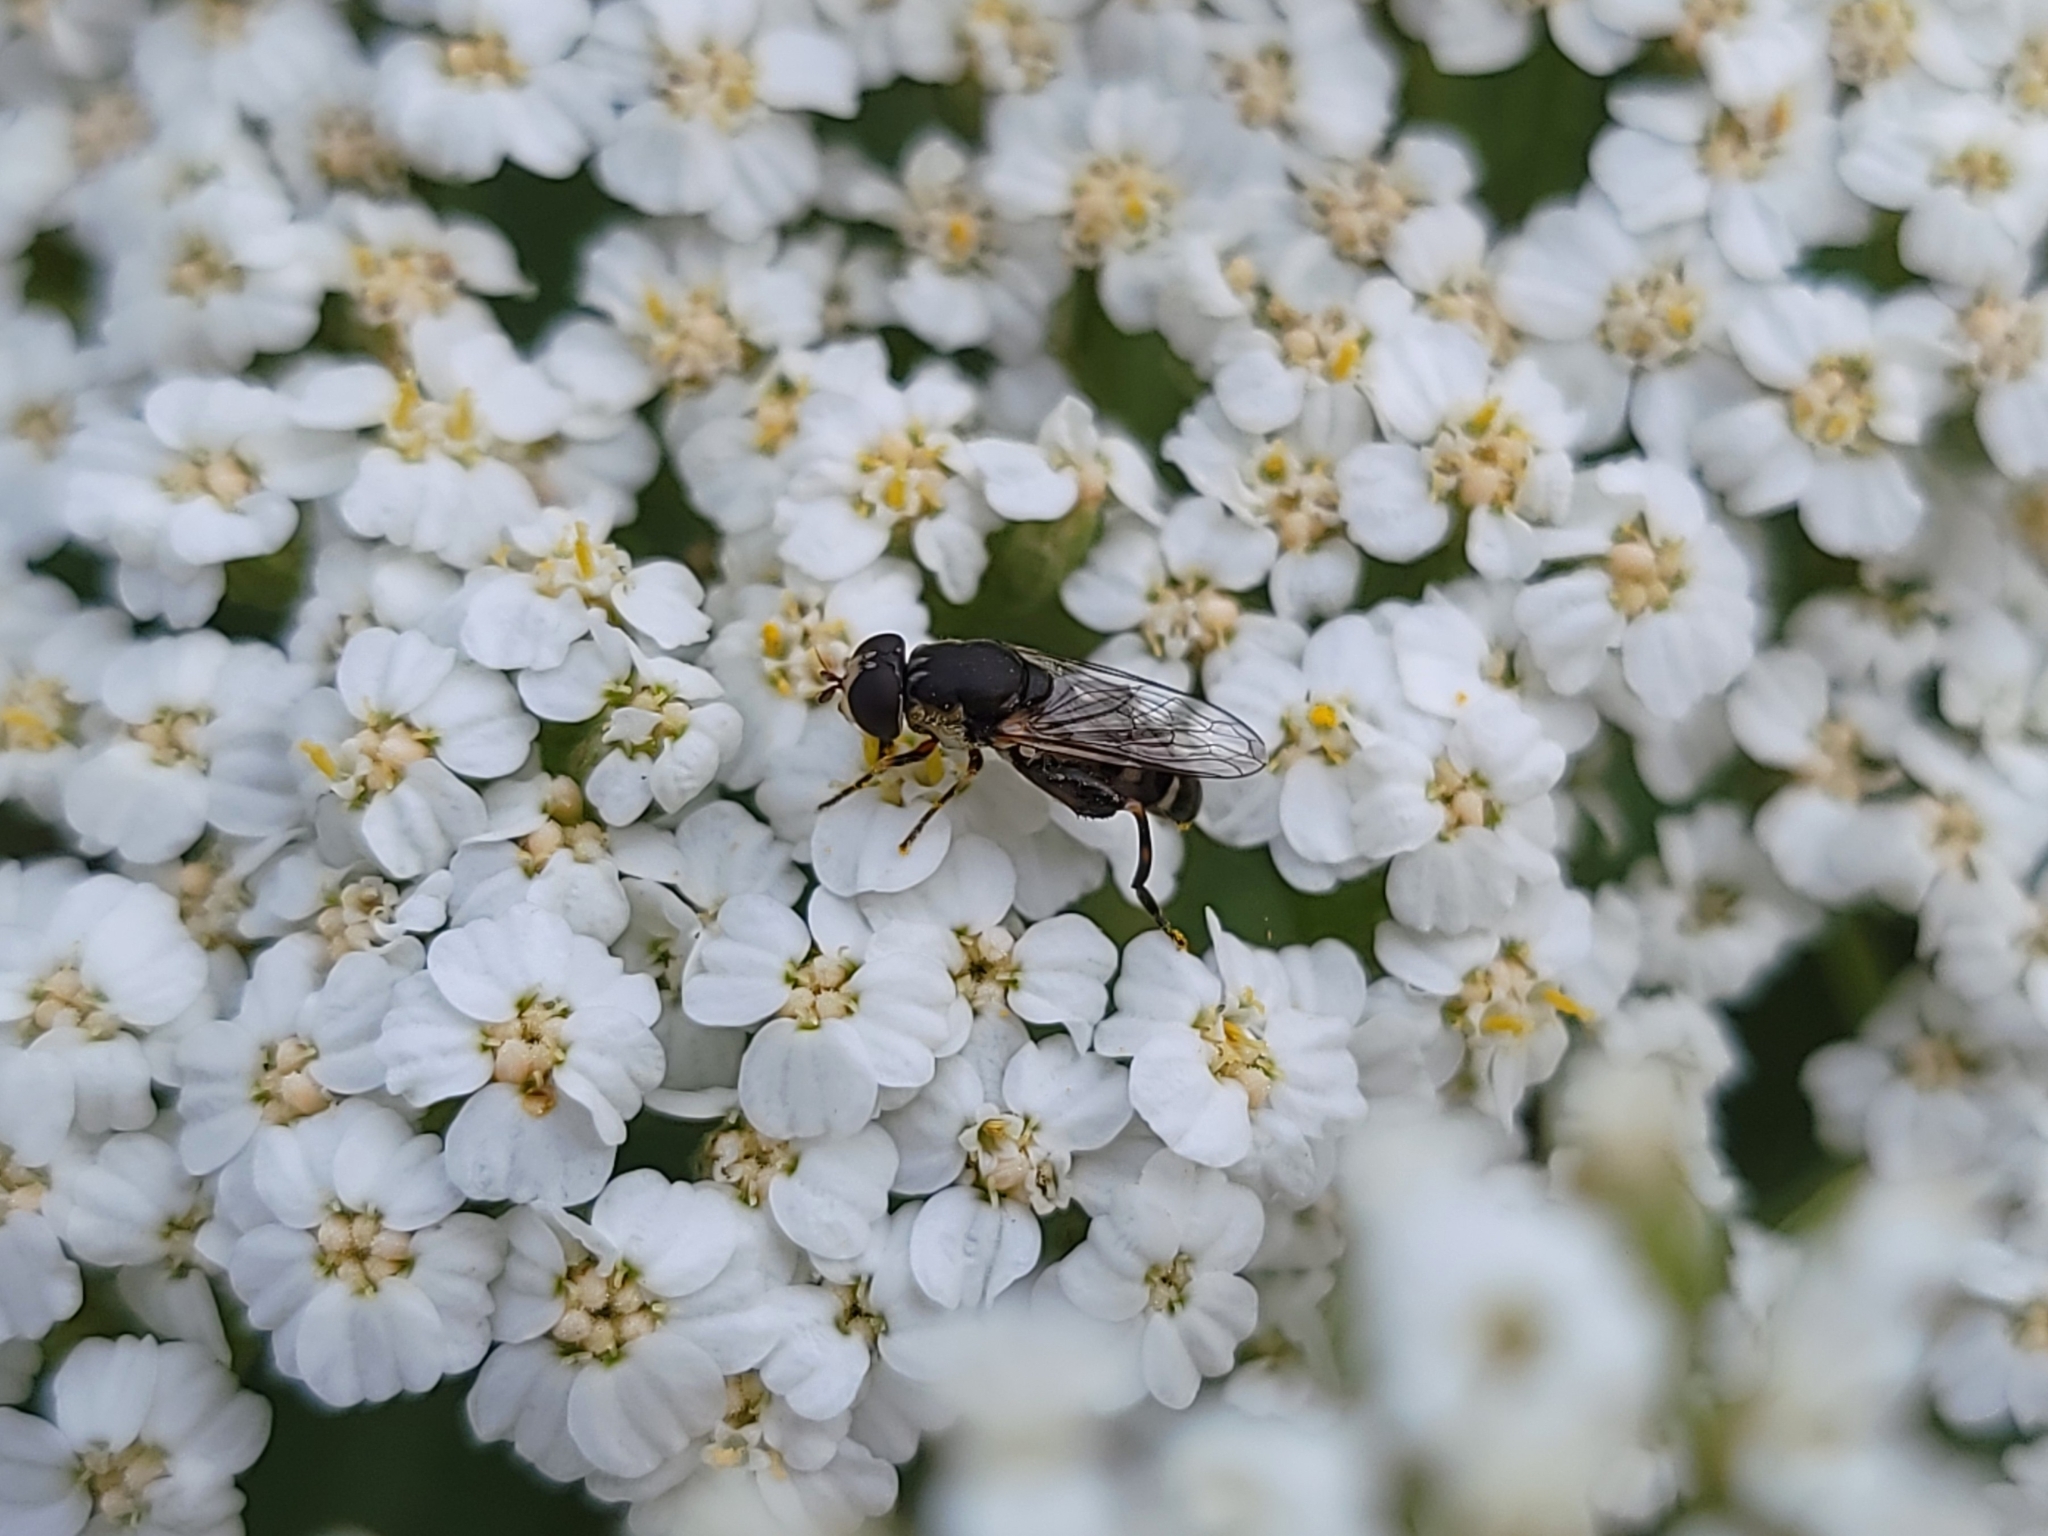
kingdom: Animalia
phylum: Arthropoda
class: Insecta
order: Diptera
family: Syrphidae
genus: Syritta
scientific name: Syritta pipiens
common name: Hover fly
